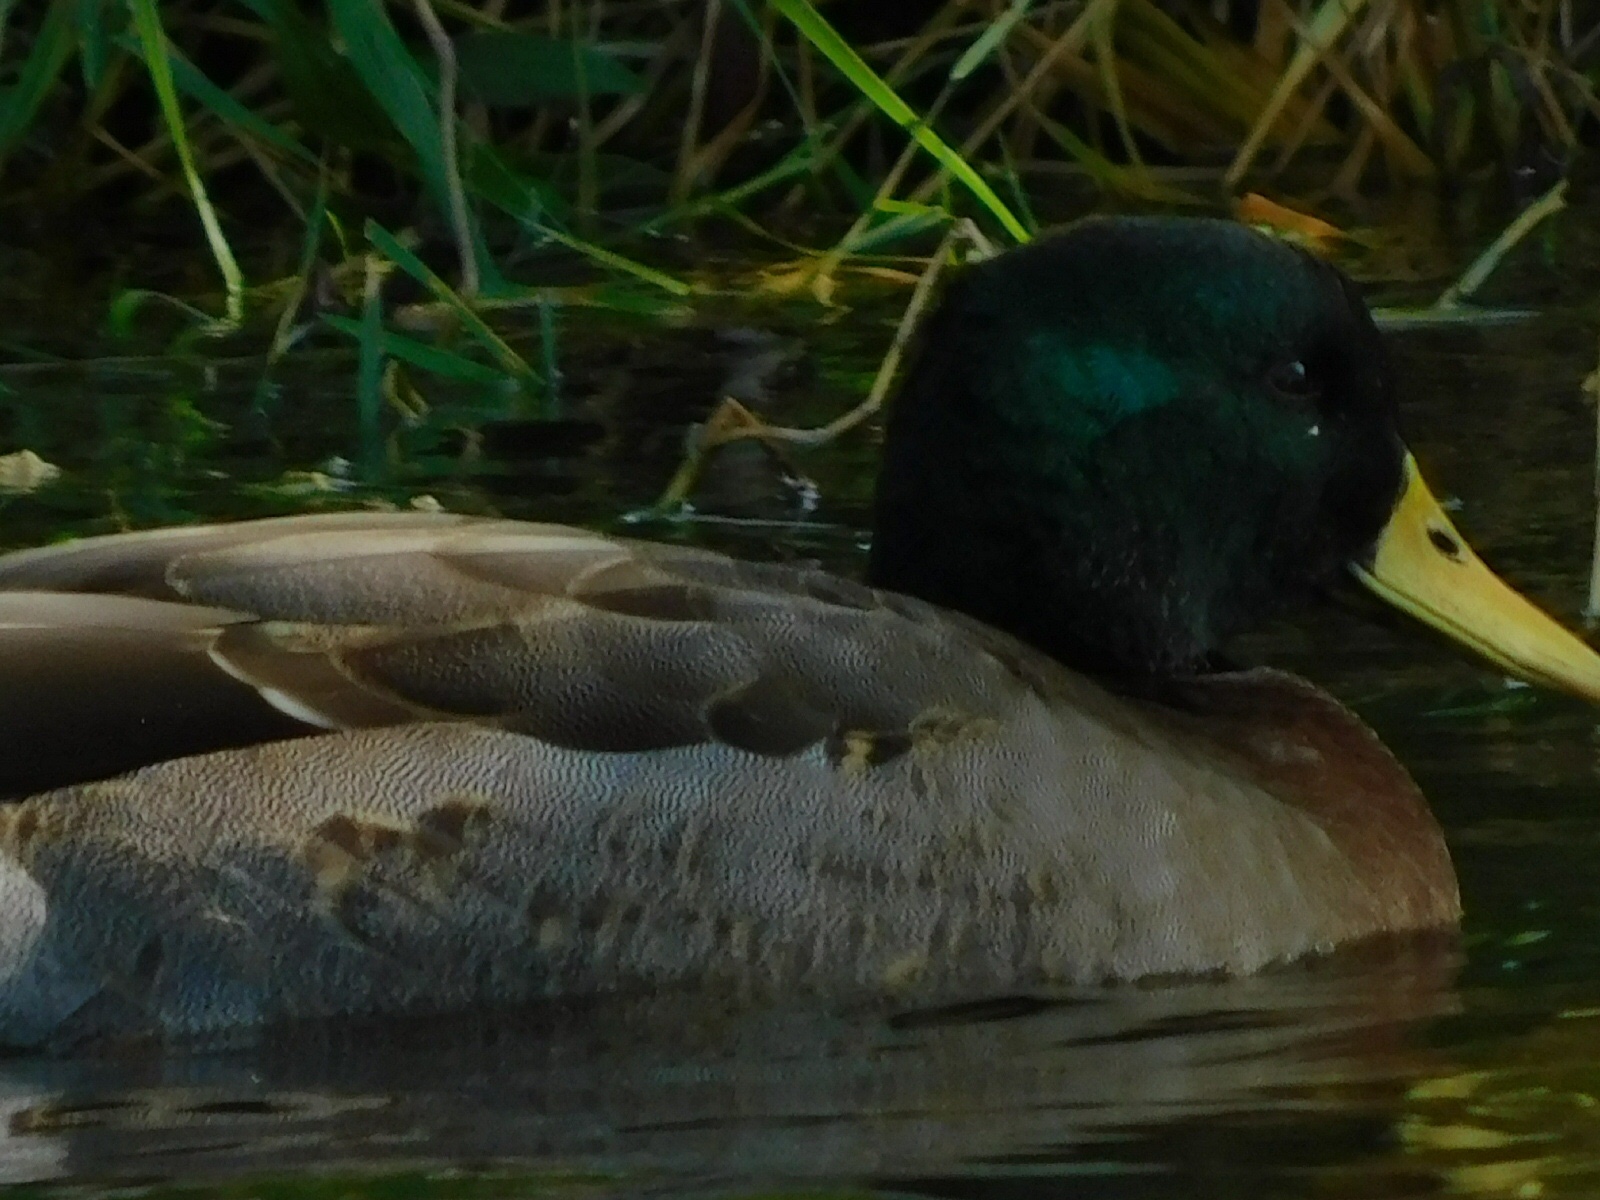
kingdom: Animalia
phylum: Chordata
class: Aves
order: Anseriformes
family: Anatidae
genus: Anas
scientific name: Anas platyrhynchos
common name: Mallard
